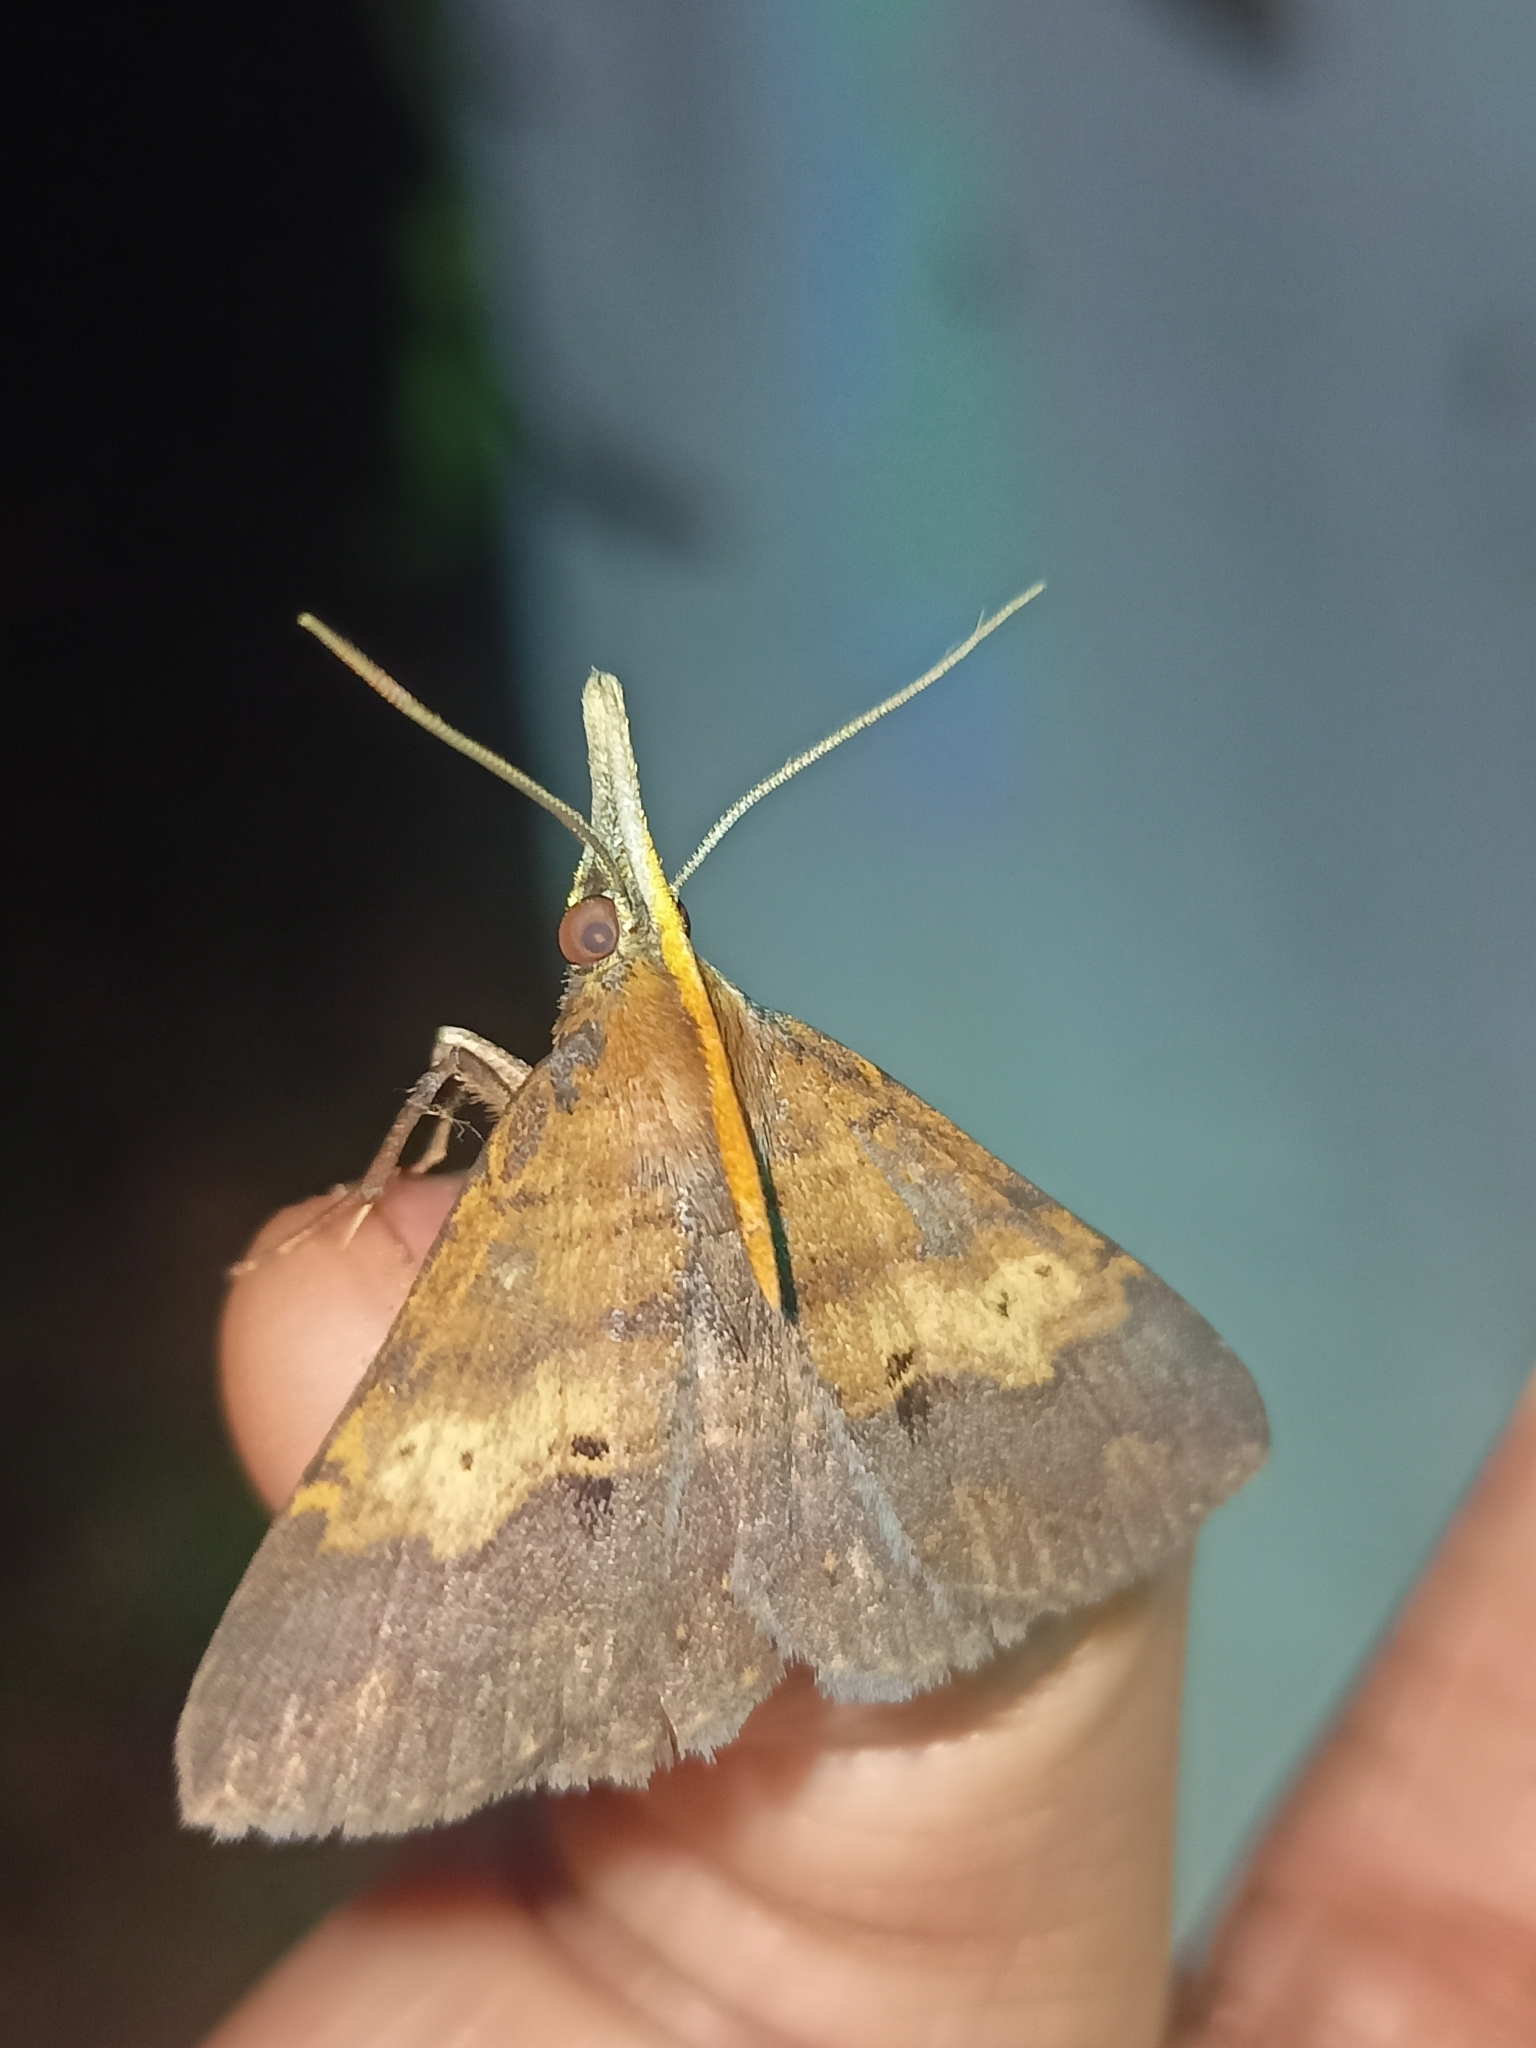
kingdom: Animalia
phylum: Arthropoda
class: Insecta
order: Lepidoptera
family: Erebidae
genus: Oxaenanus
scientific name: Oxaenanus brontesalis
